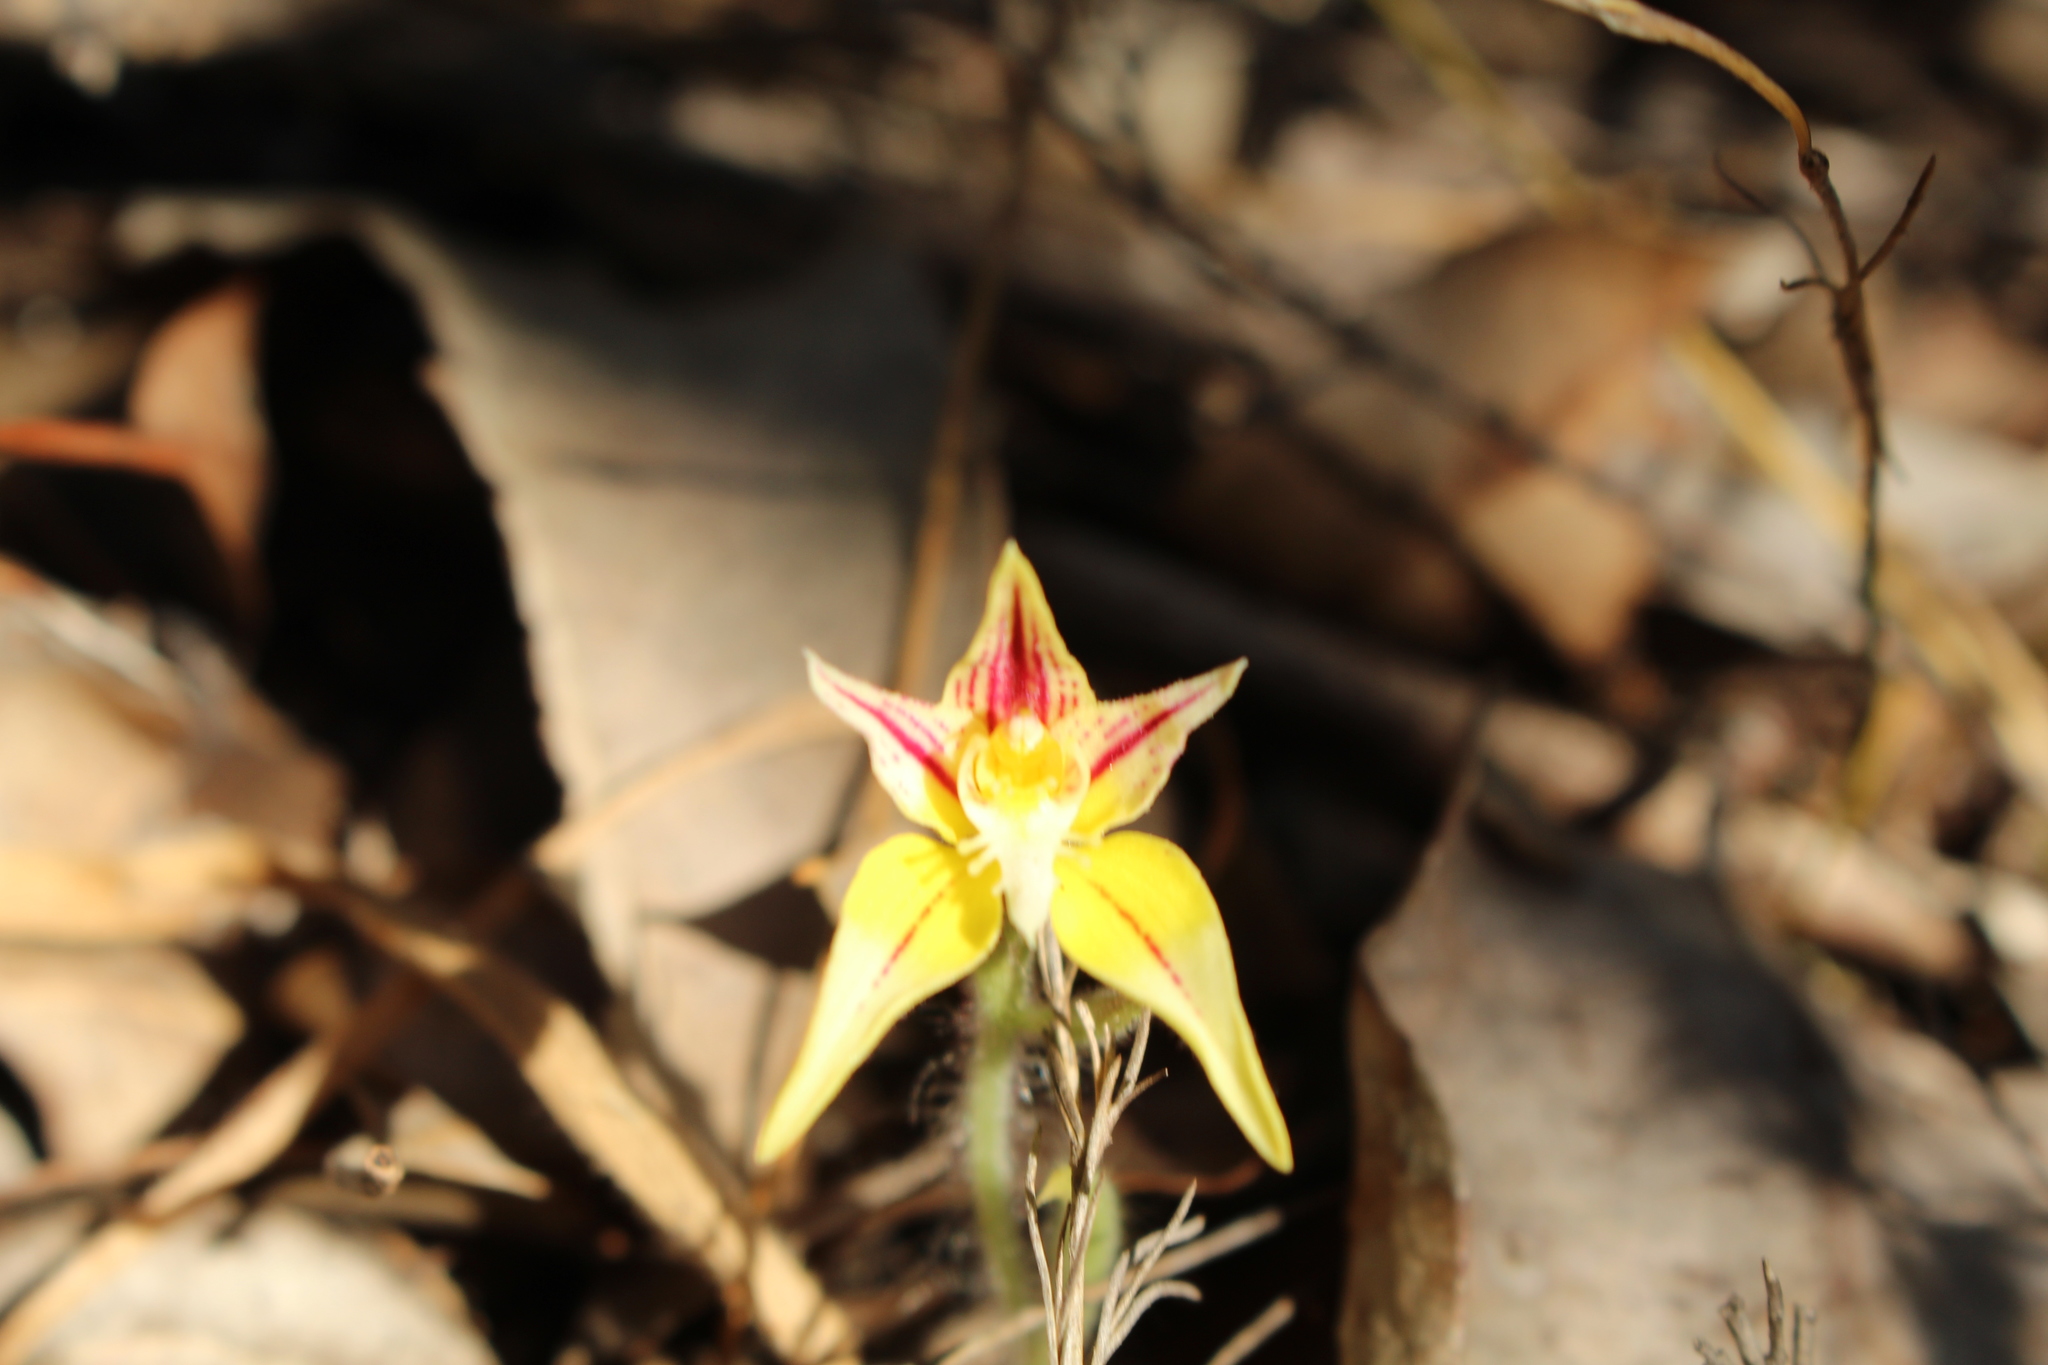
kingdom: Plantae
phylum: Tracheophyta
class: Liliopsida
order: Asparagales
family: Orchidaceae
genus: Caladenia
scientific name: Caladenia flava
